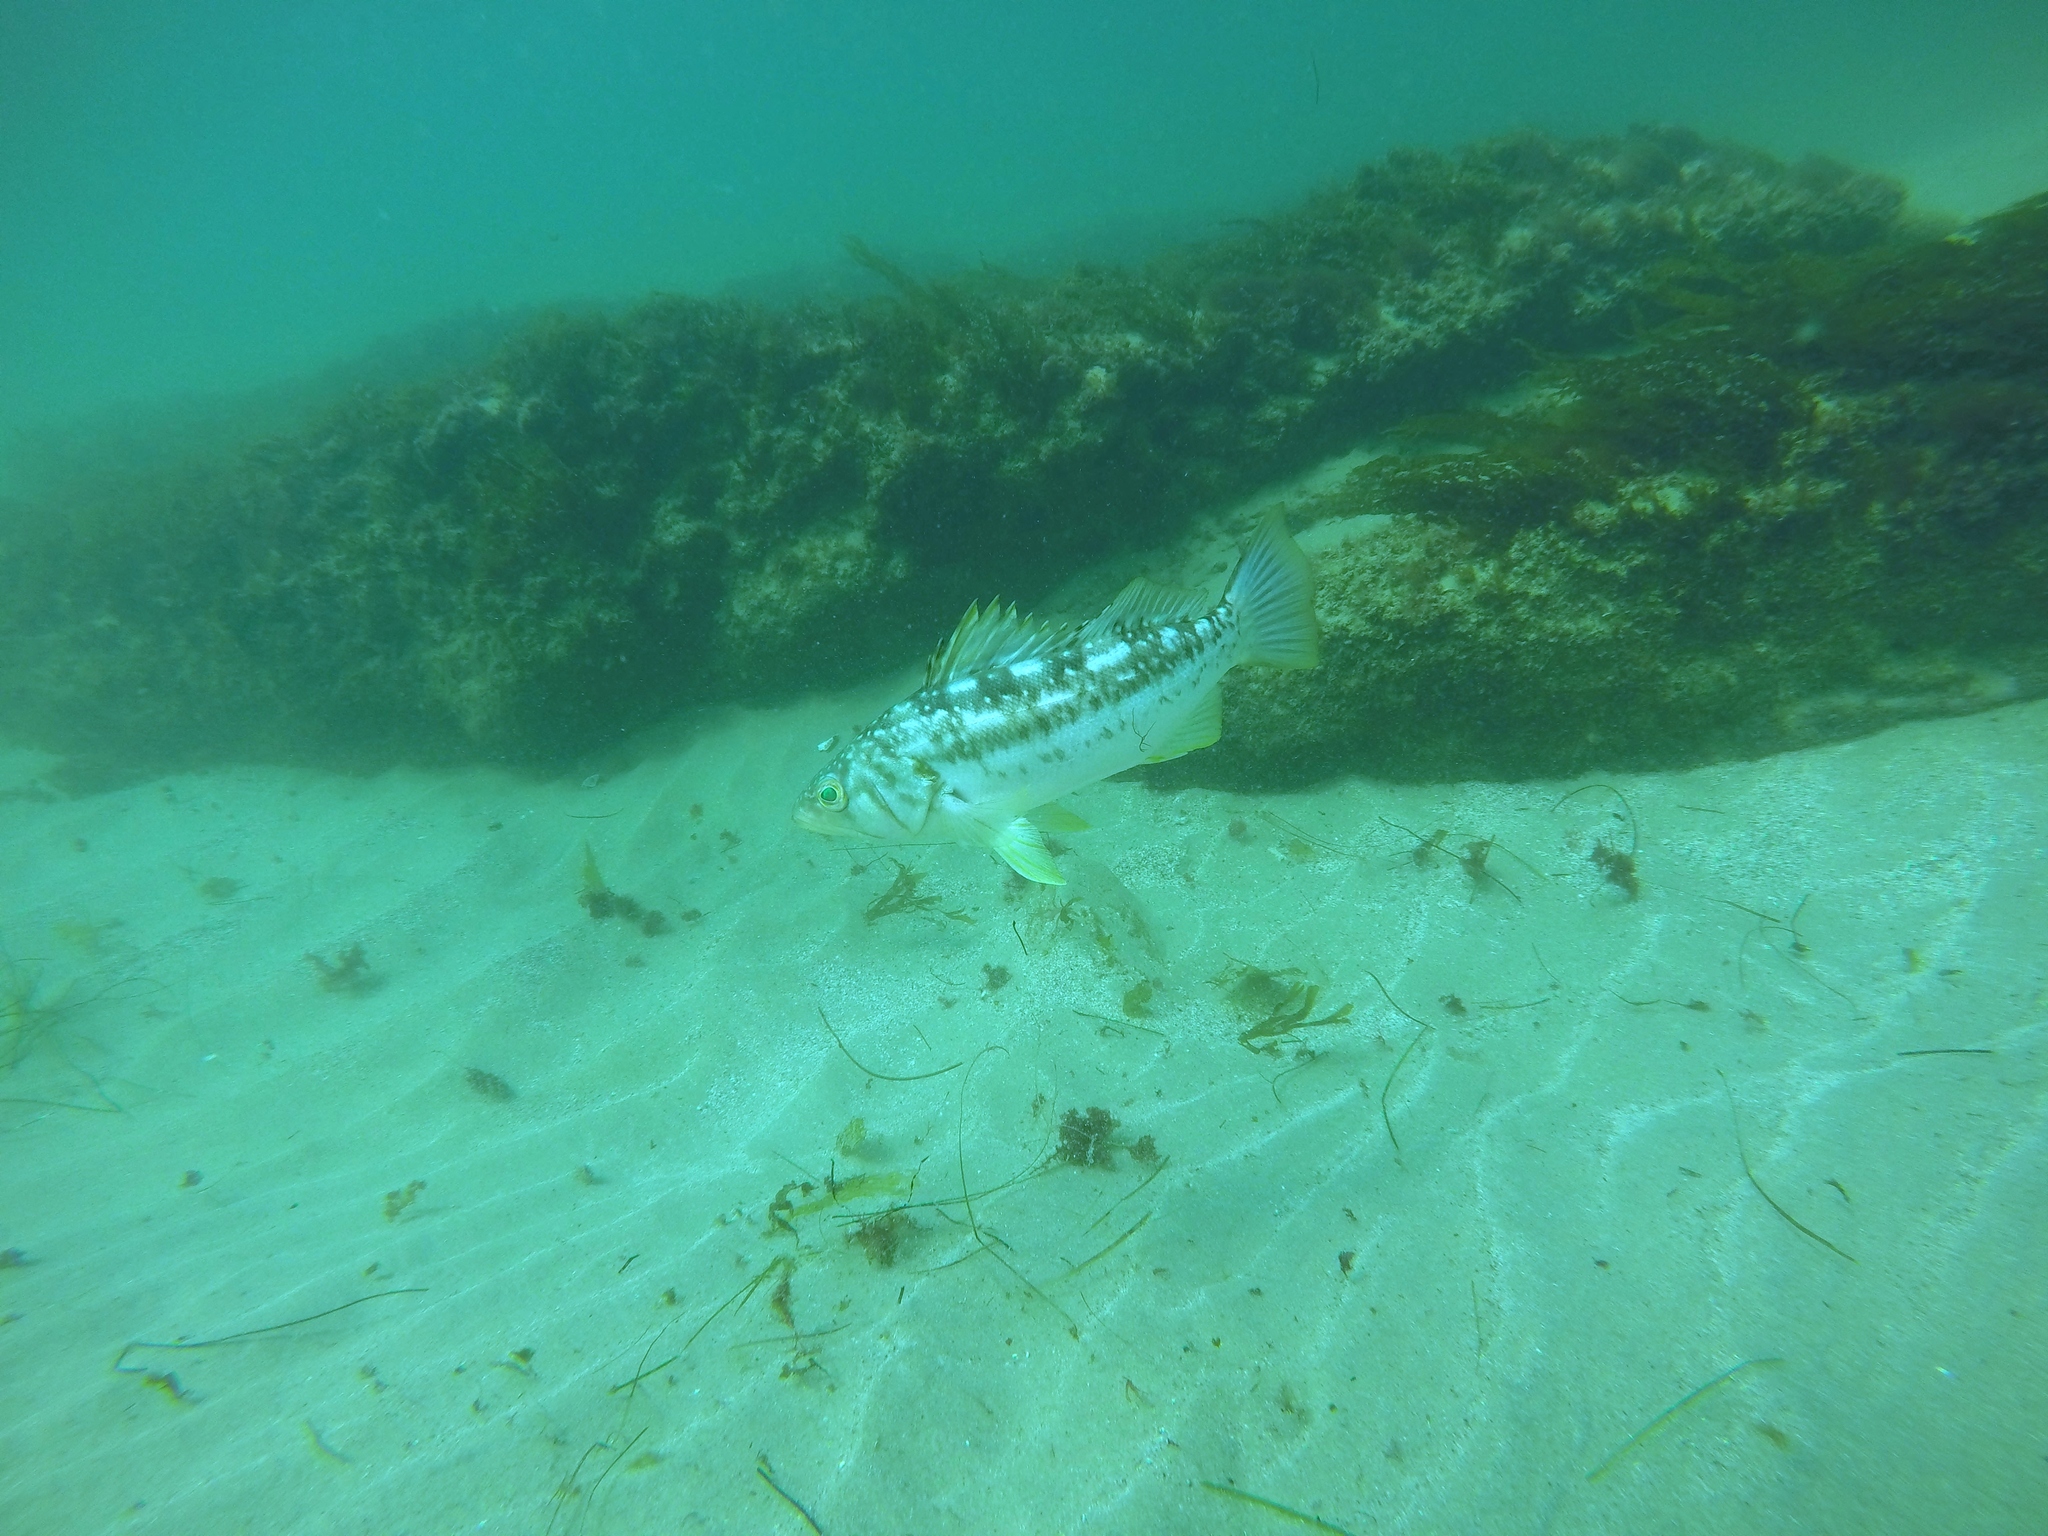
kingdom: Animalia
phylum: Chordata
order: Perciformes
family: Serranidae
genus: Paralabrax
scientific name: Paralabrax clathratus
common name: Kelp bass
